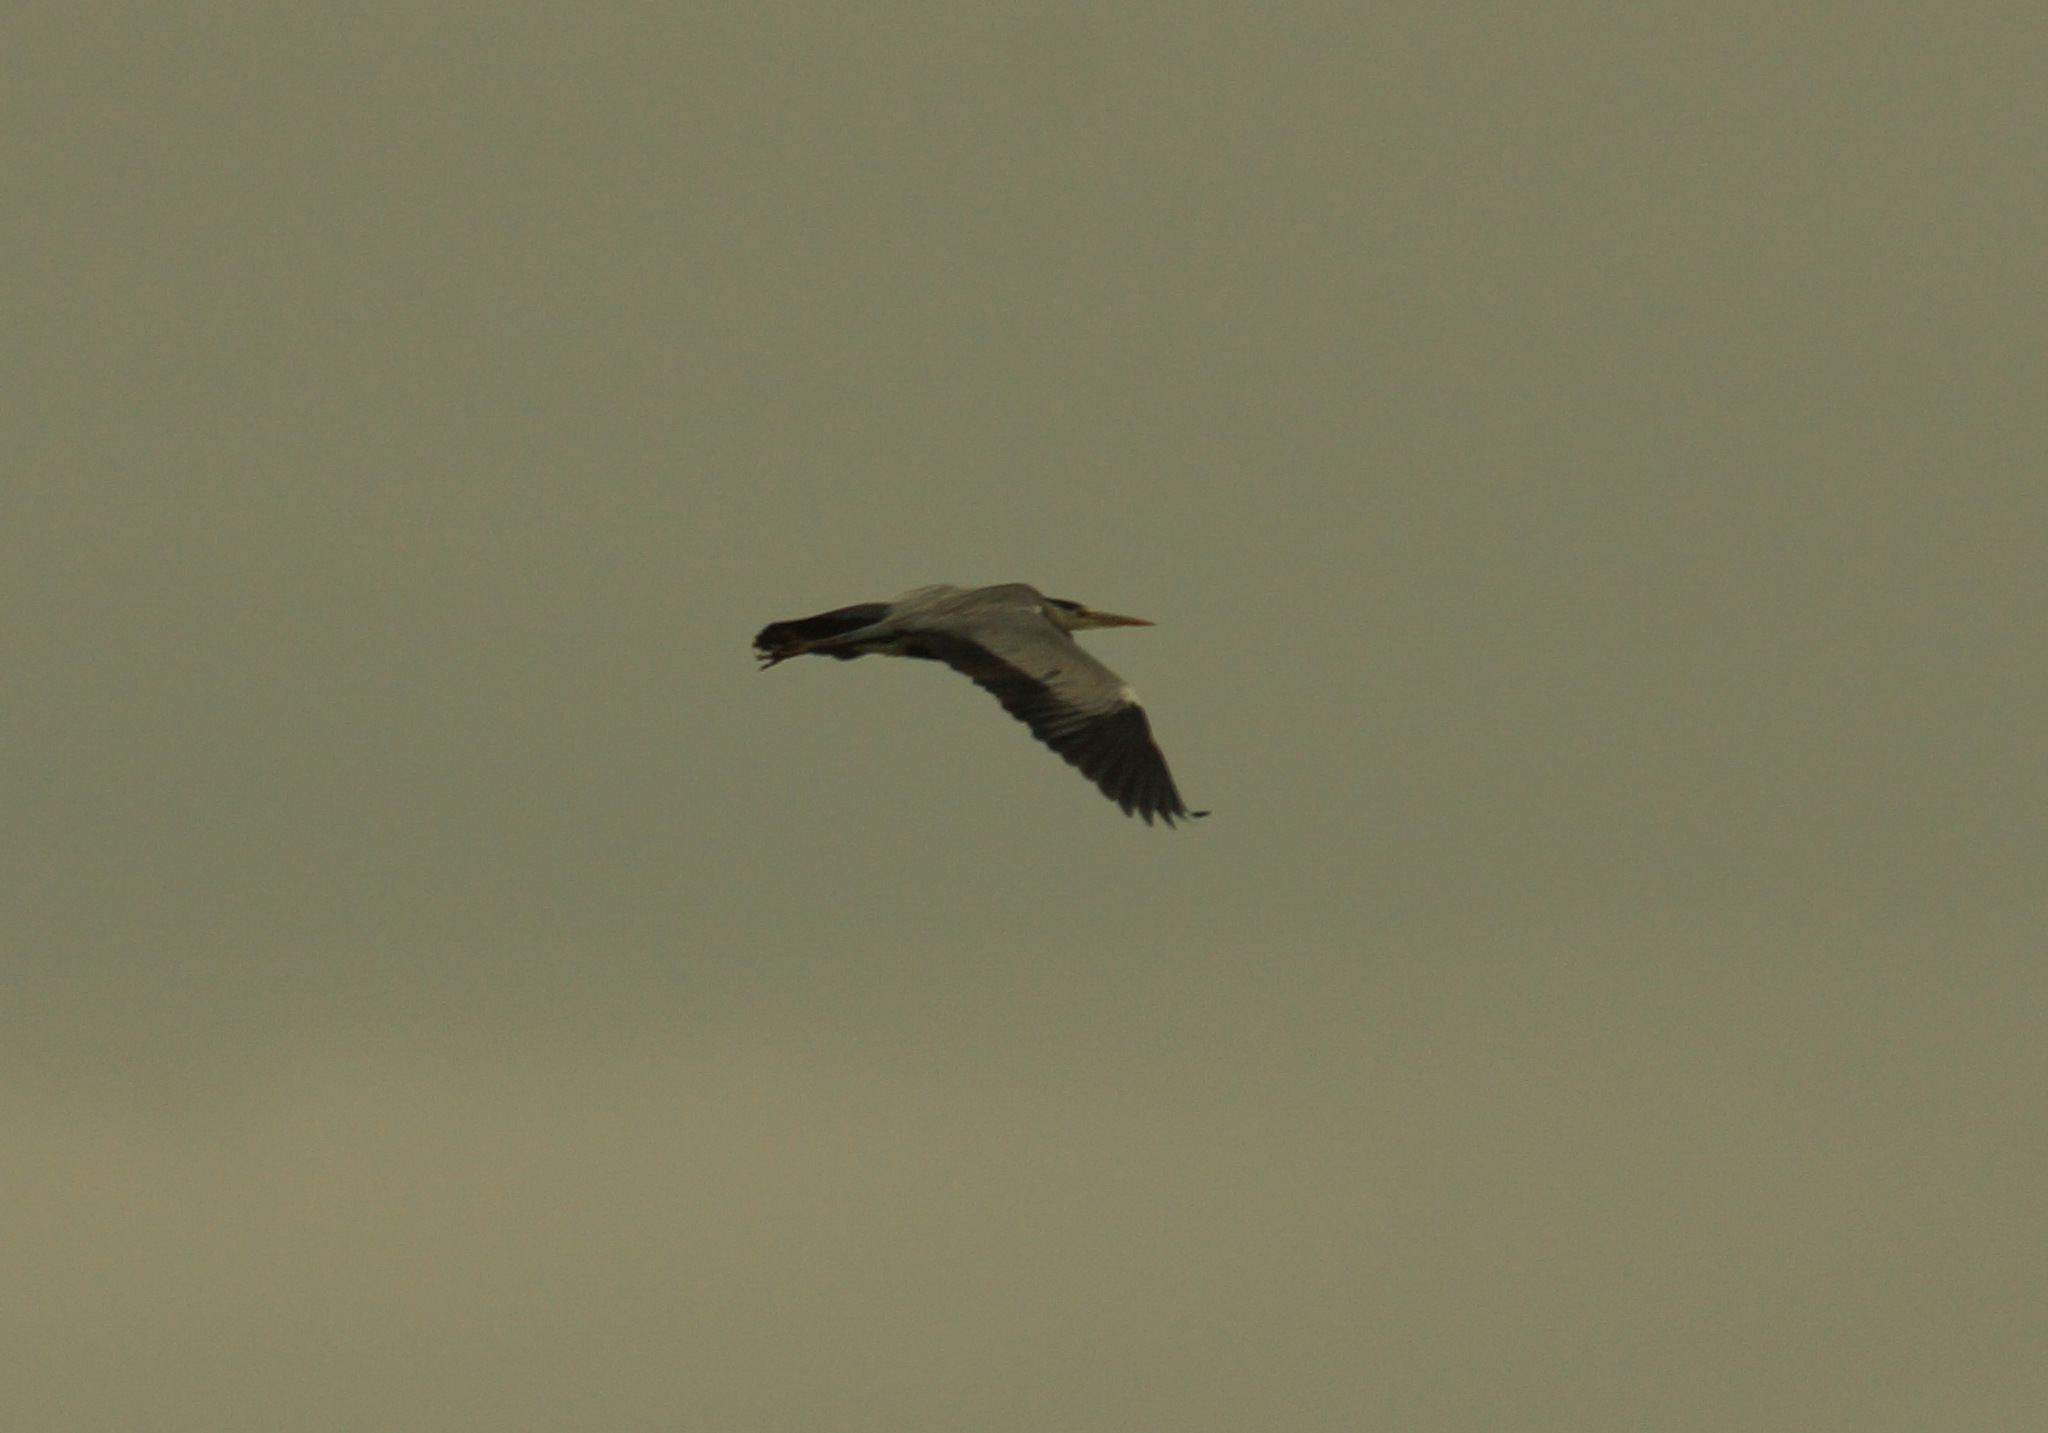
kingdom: Animalia
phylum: Chordata
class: Aves
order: Pelecaniformes
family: Ardeidae
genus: Ardea
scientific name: Ardea cinerea
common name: Grey heron
